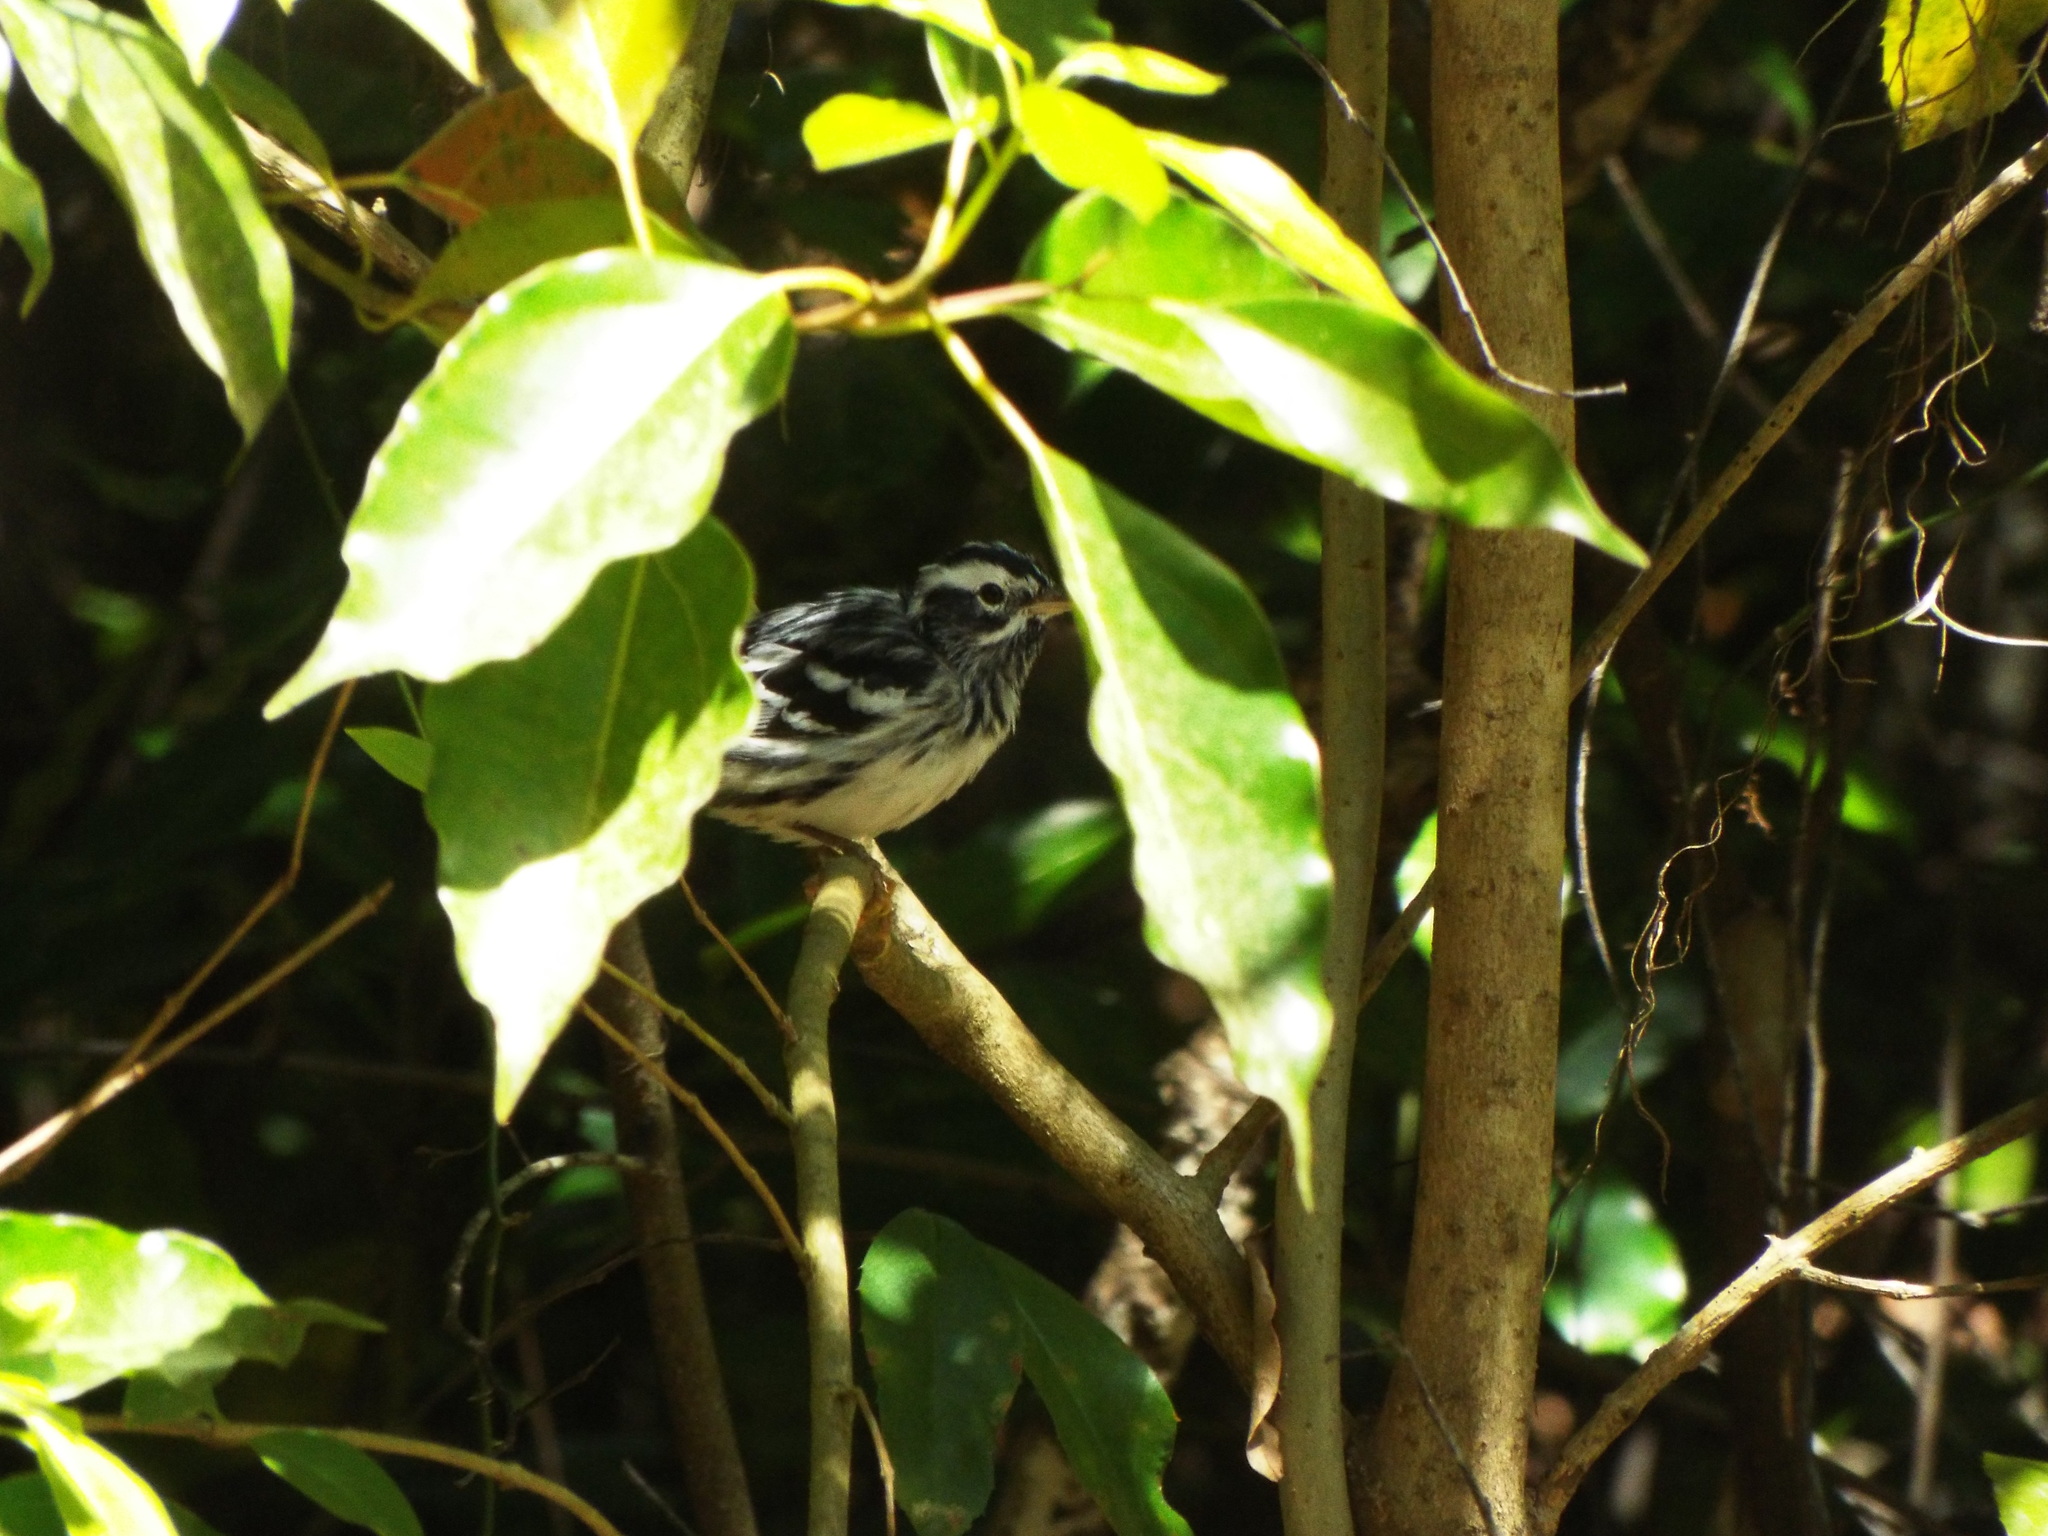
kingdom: Animalia
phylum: Chordata
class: Aves
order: Passeriformes
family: Parulidae
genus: Mniotilta
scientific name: Mniotilta varia
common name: Black-and-white warbler
